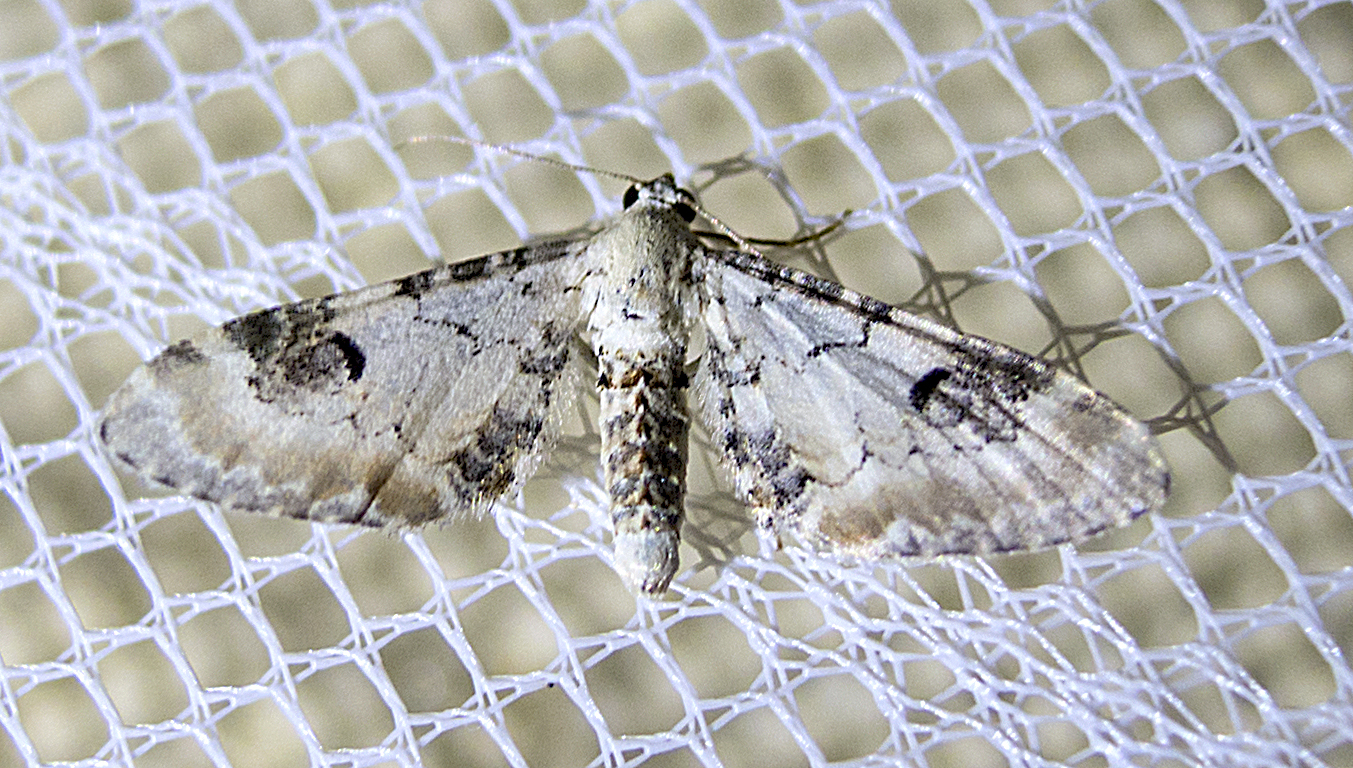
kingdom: Animalia
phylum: Arthropoda
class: Insecta
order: Lepidoptera
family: Geometridae
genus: Eupithecia
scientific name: Eupithecia centaureata
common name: Lime-speck pug
